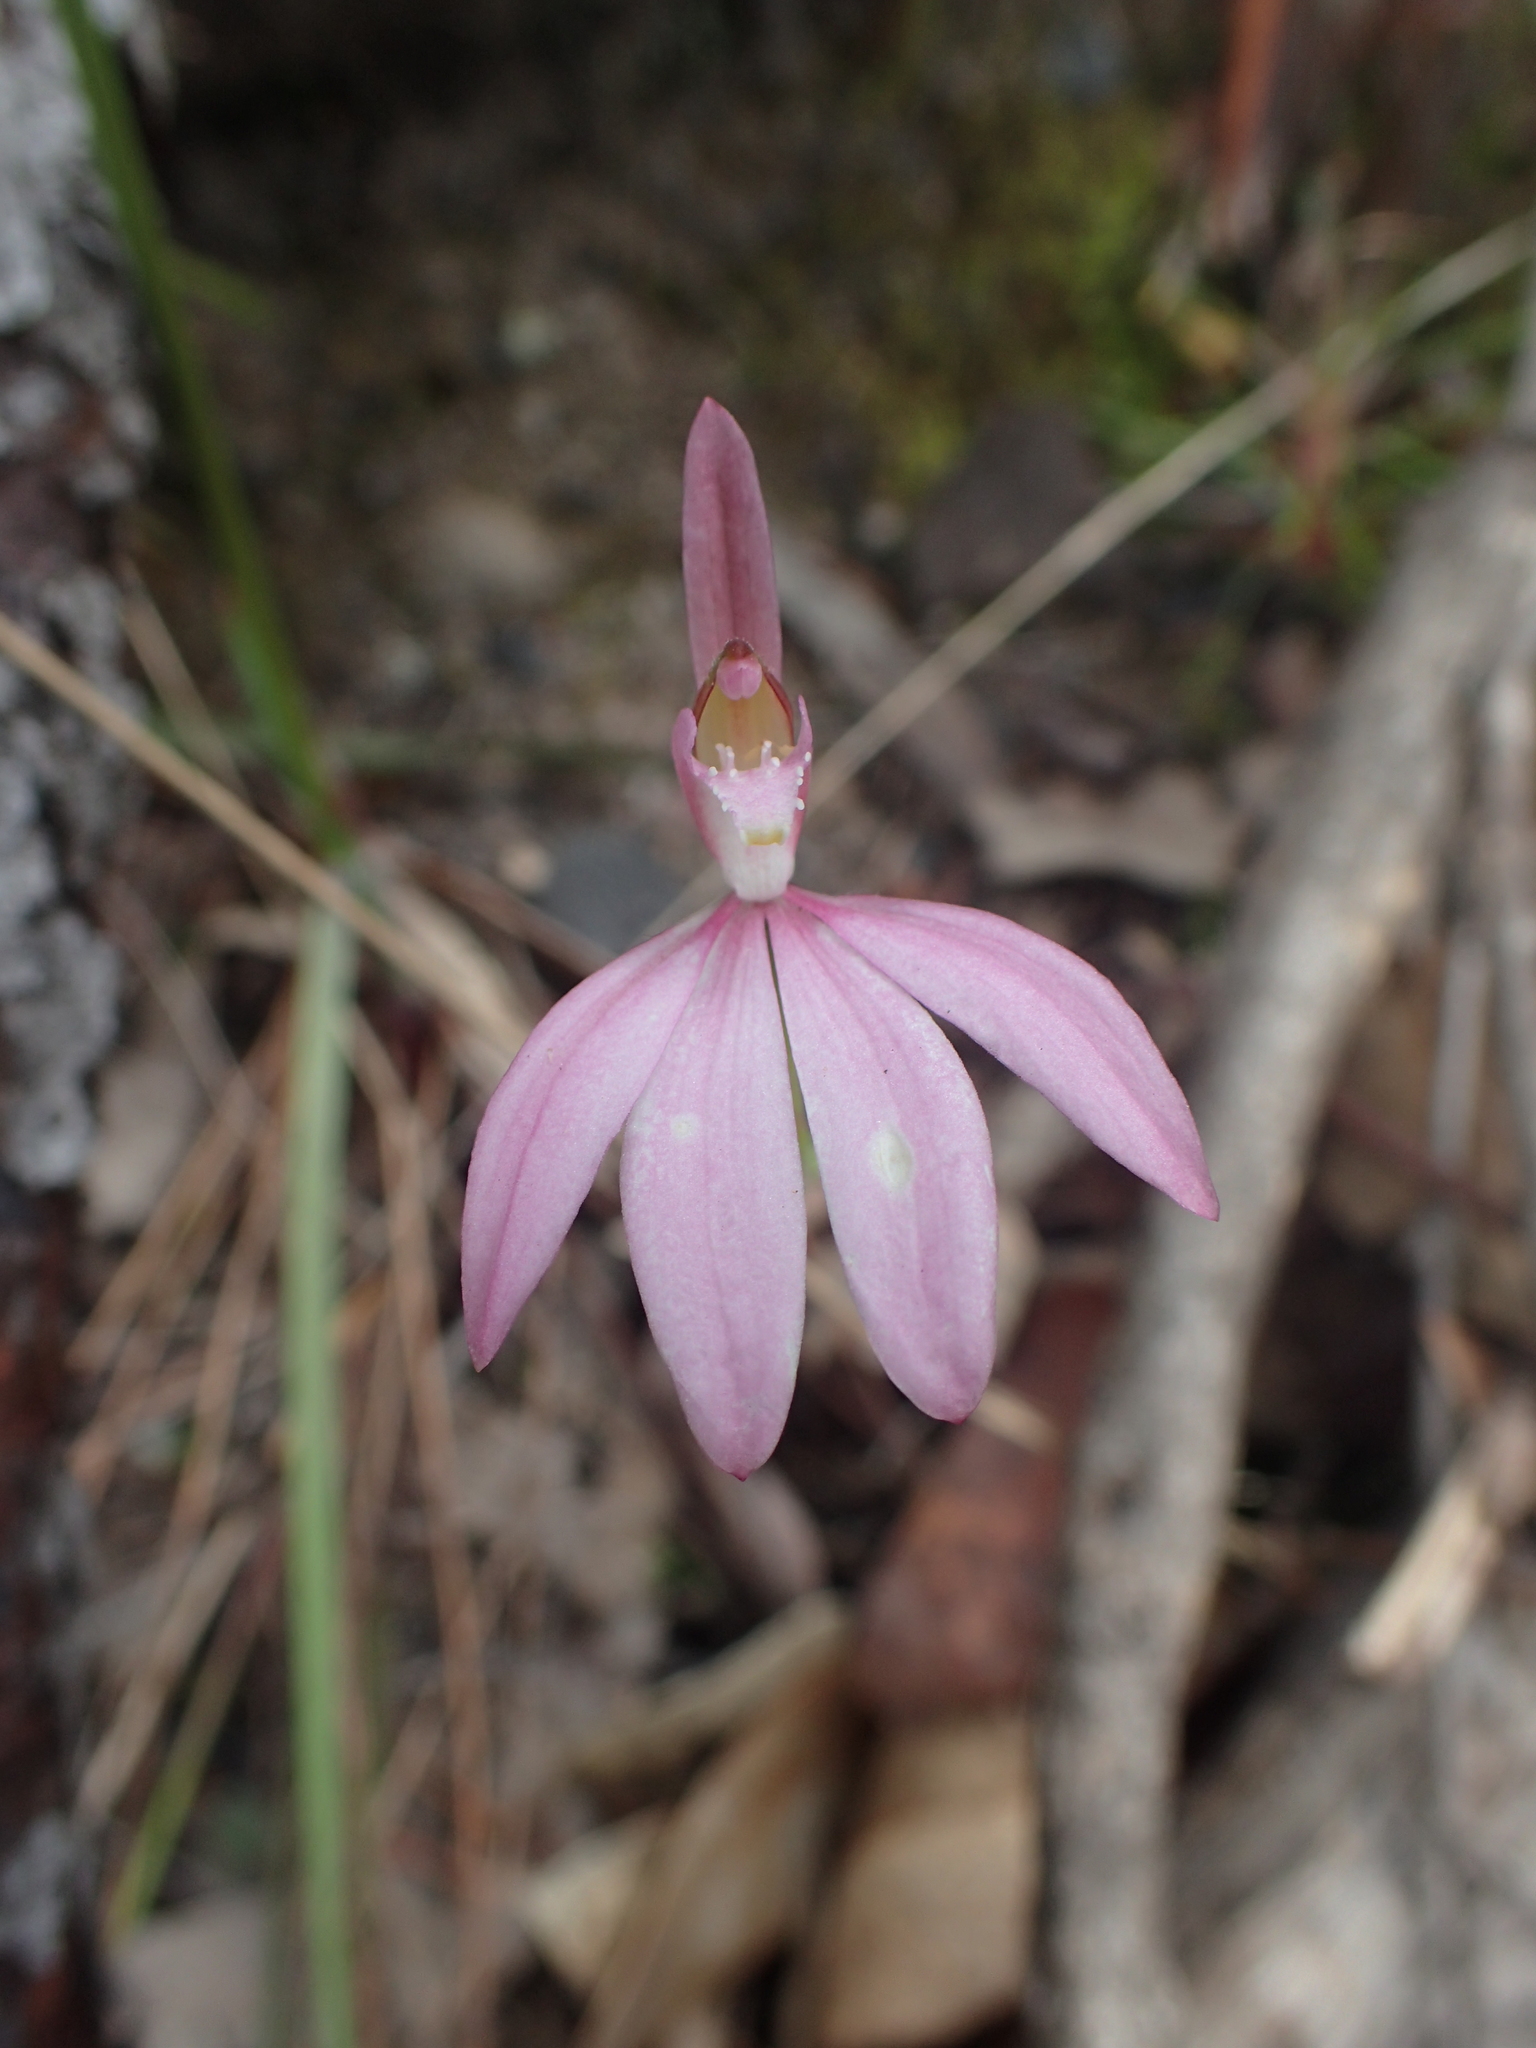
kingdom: Plantae
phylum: Tracheophyta
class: Liliopsida
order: Asparagales
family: Orchidaceae
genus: Caladenia
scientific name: Caladenia catenata
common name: White caladenia
